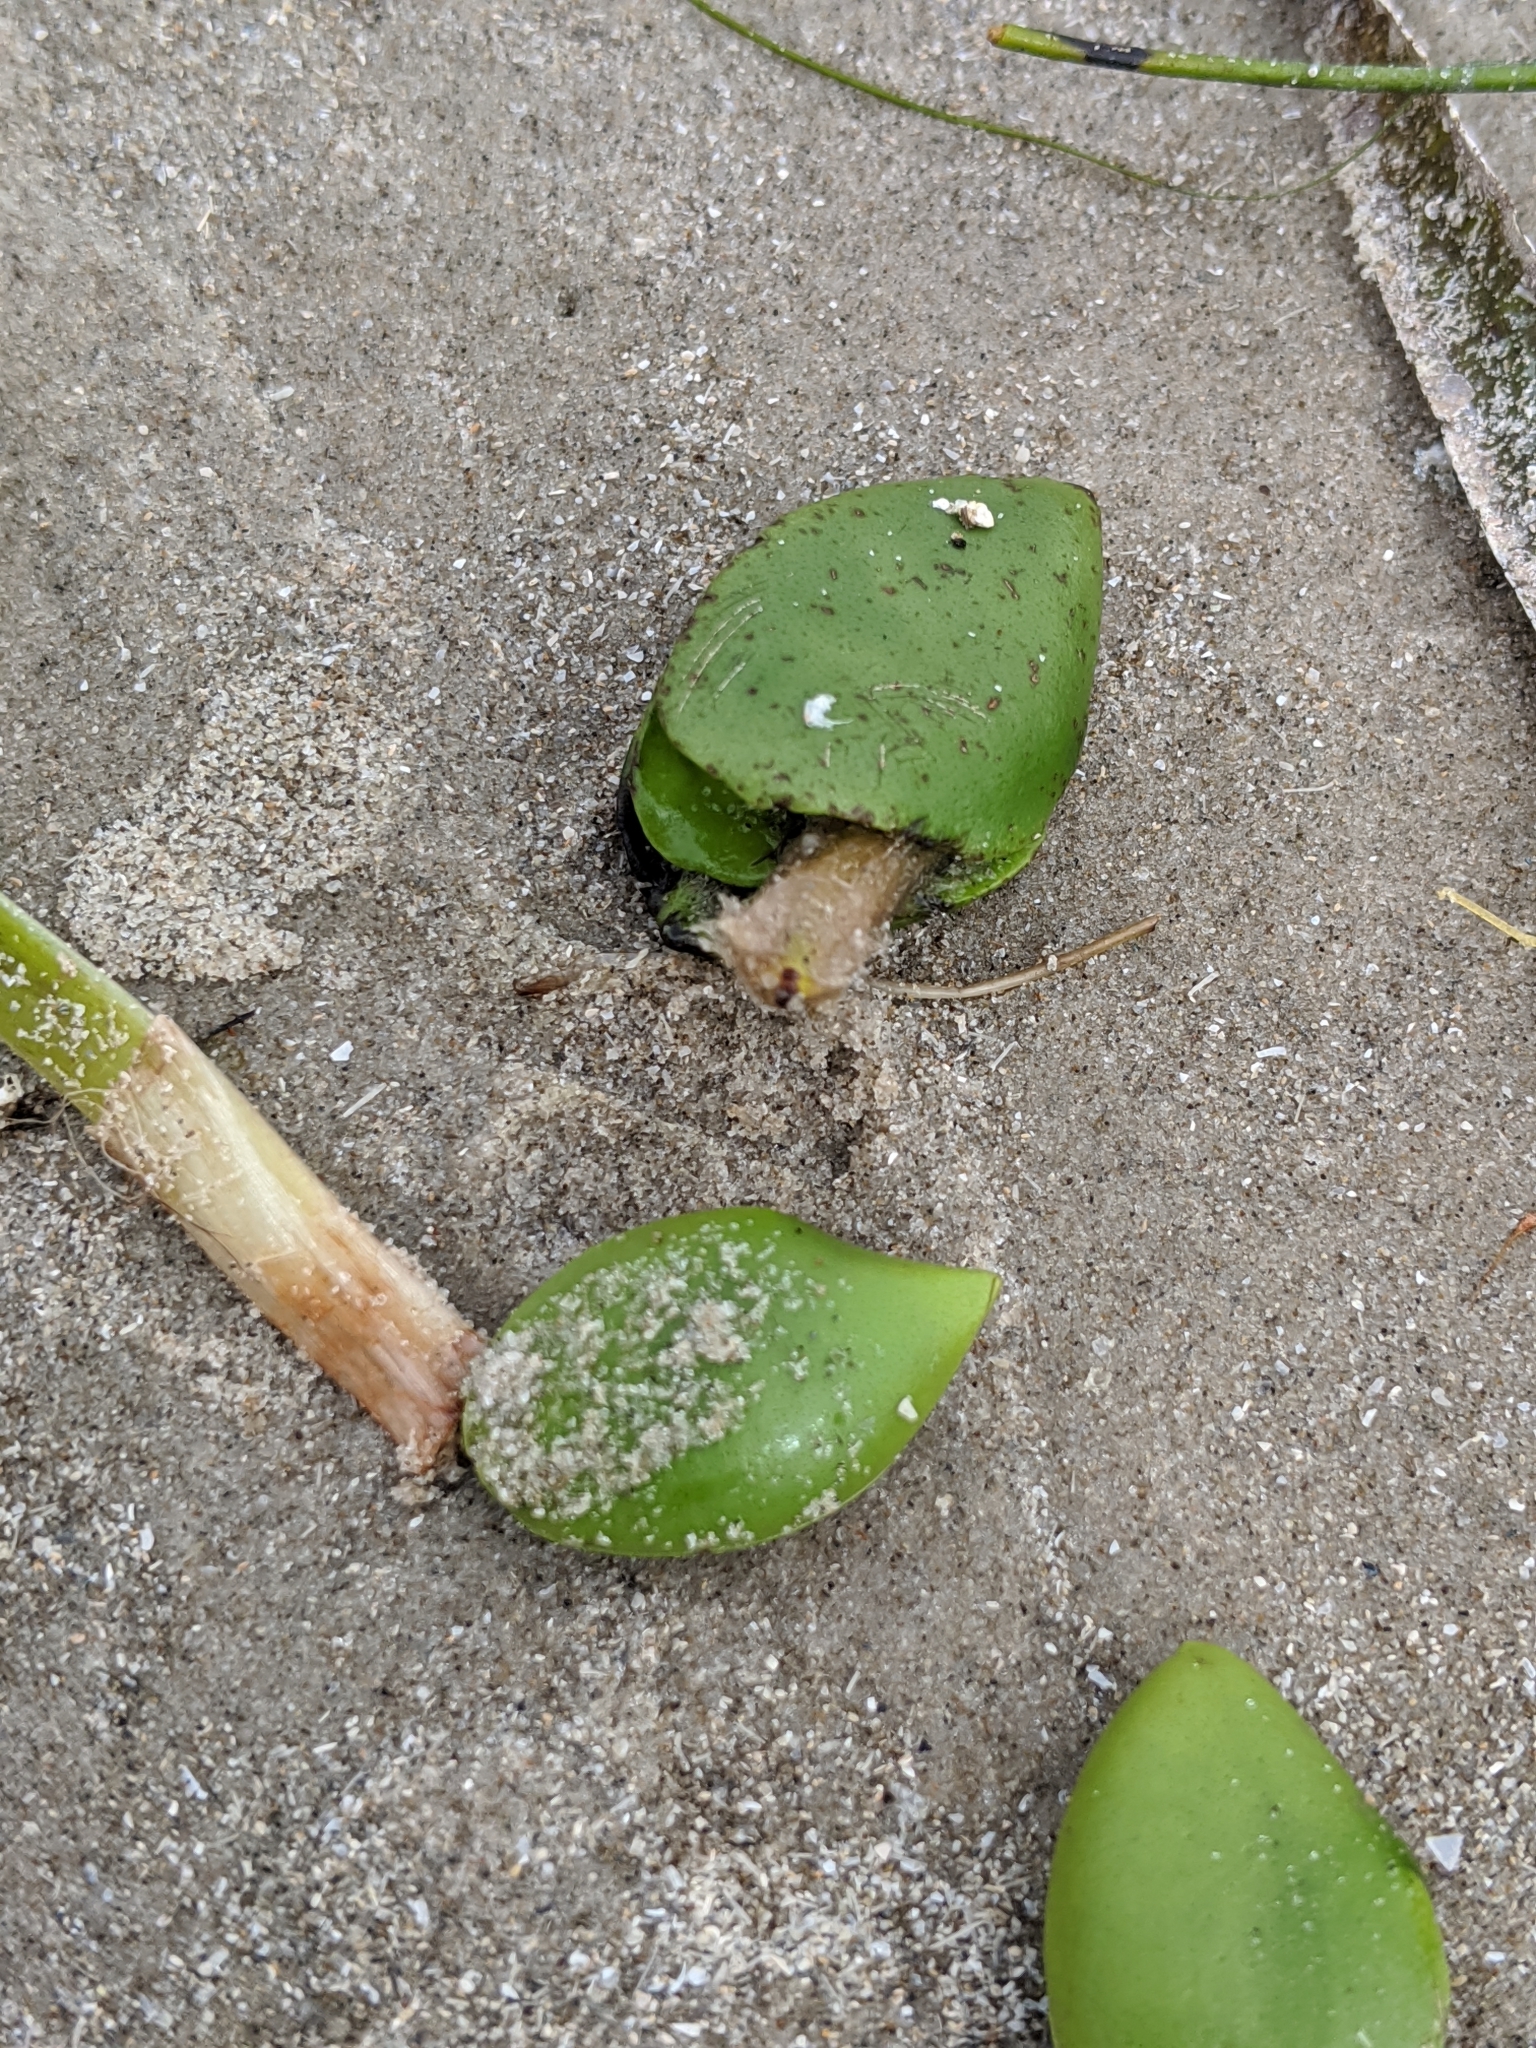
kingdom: Plantae
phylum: Tracheophyta
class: Magnoliopsida
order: Lamiales
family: Acanthaceae
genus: Avicennia
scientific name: Avicennia germinans
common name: Black mangrove
